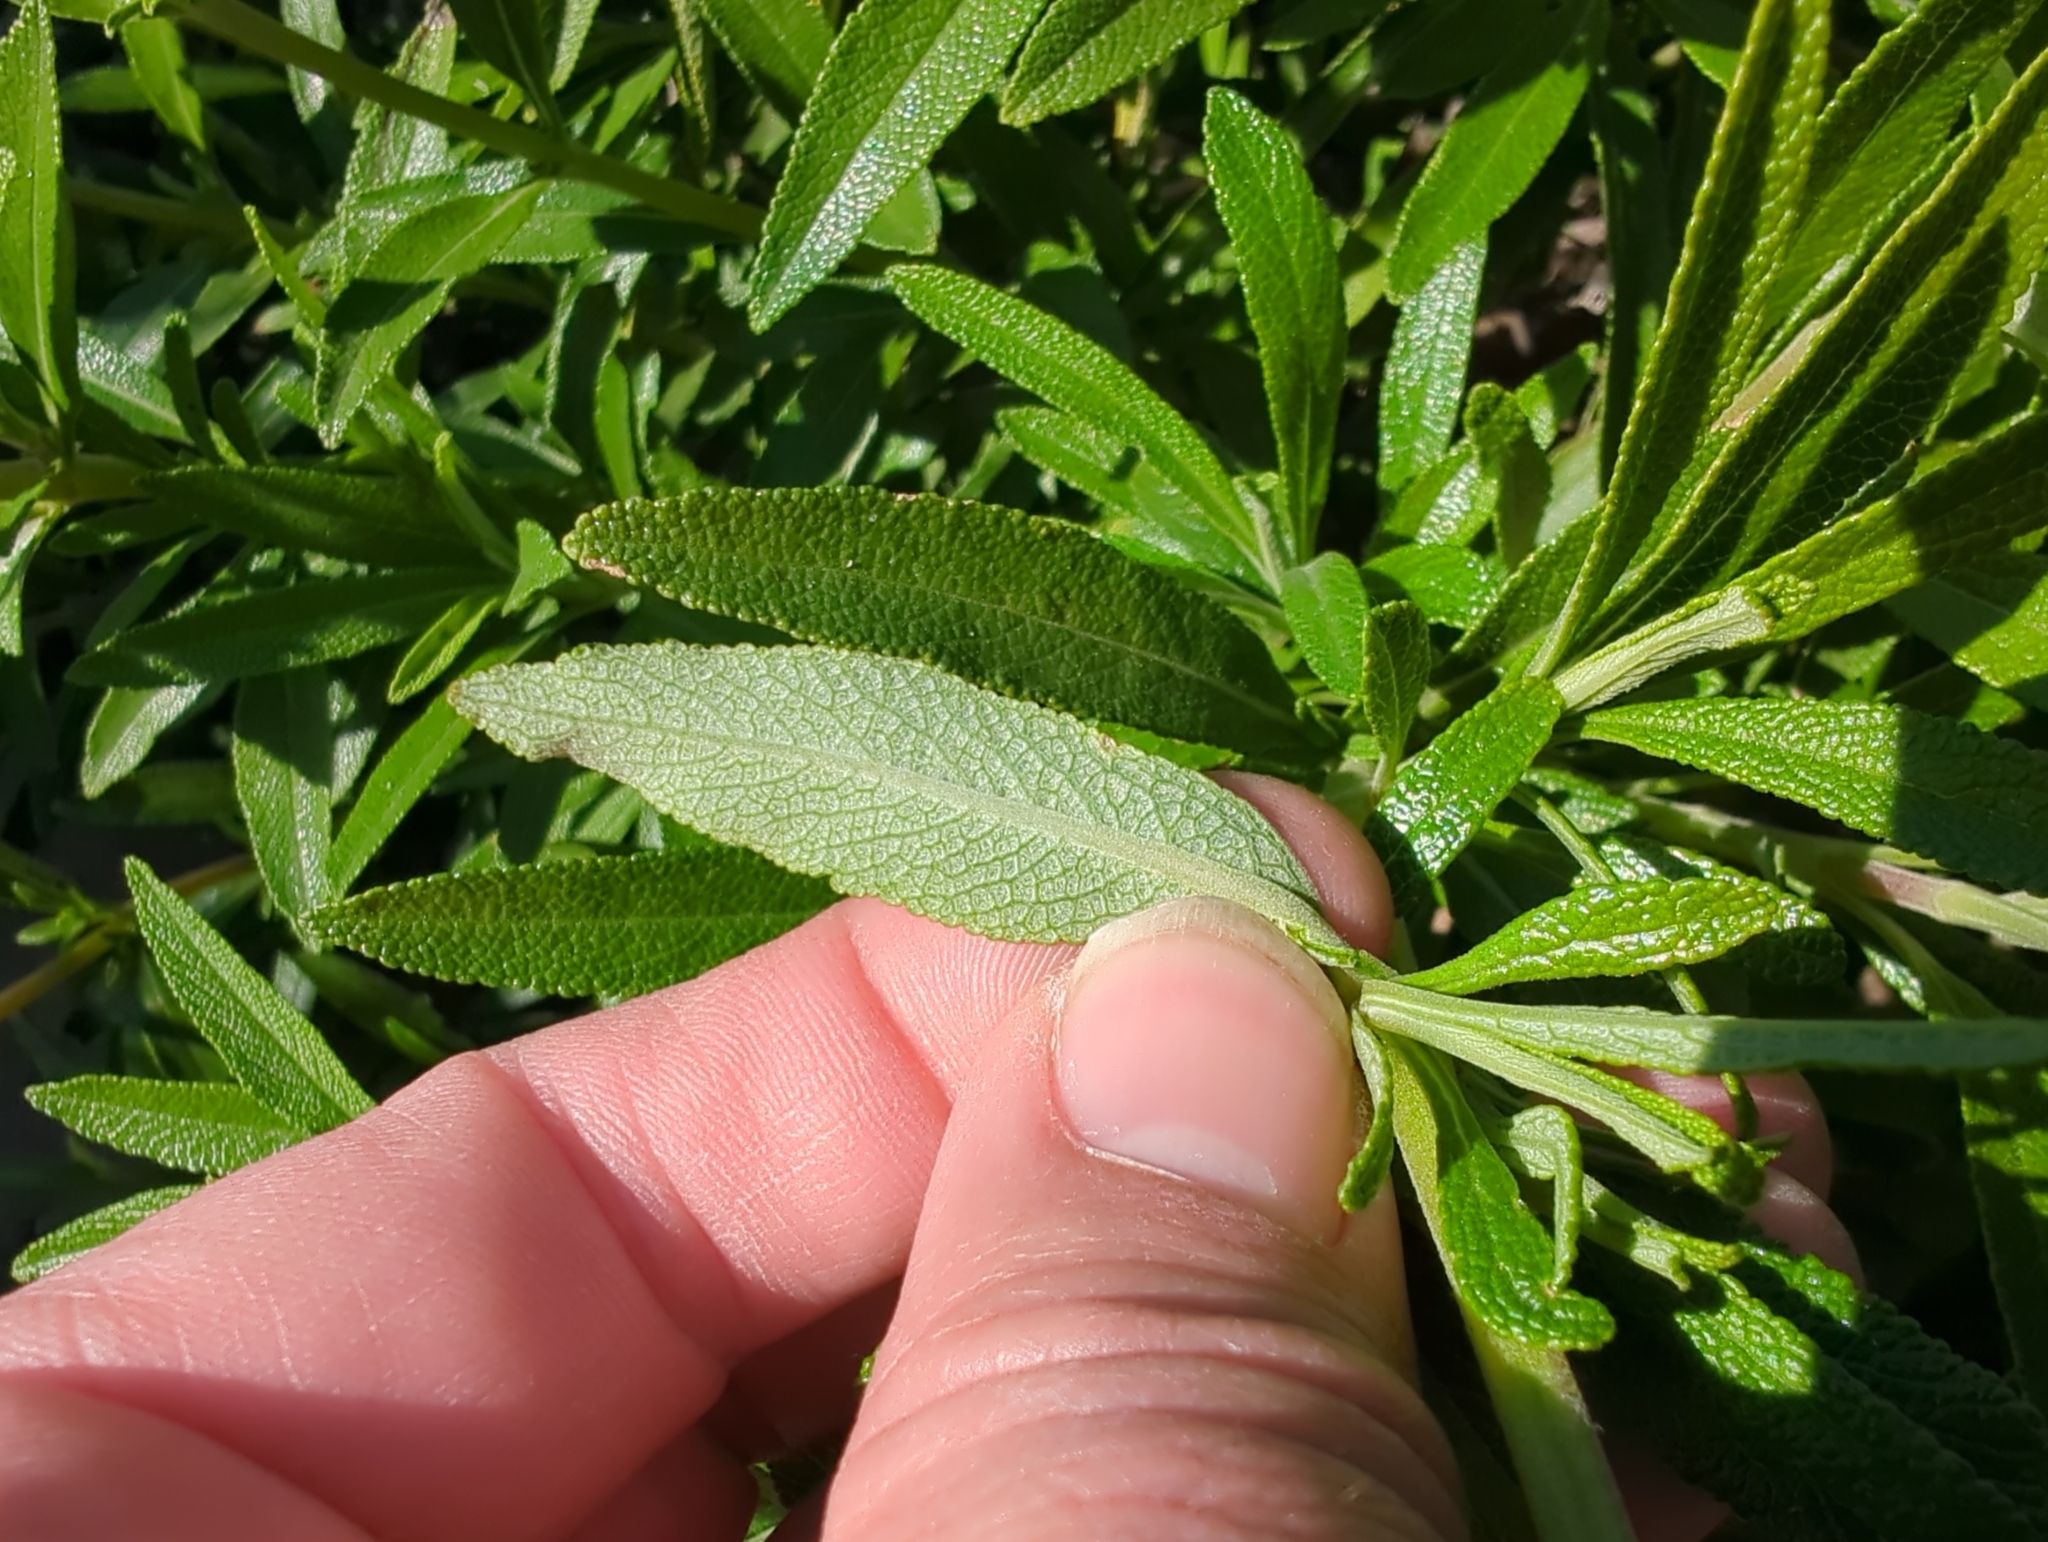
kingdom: Plantae
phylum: Tracheophyta
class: Magnoliopsida
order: Lamiales
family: Lamiaceae
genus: Salvia
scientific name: Salvia mellifera
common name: Black sage
